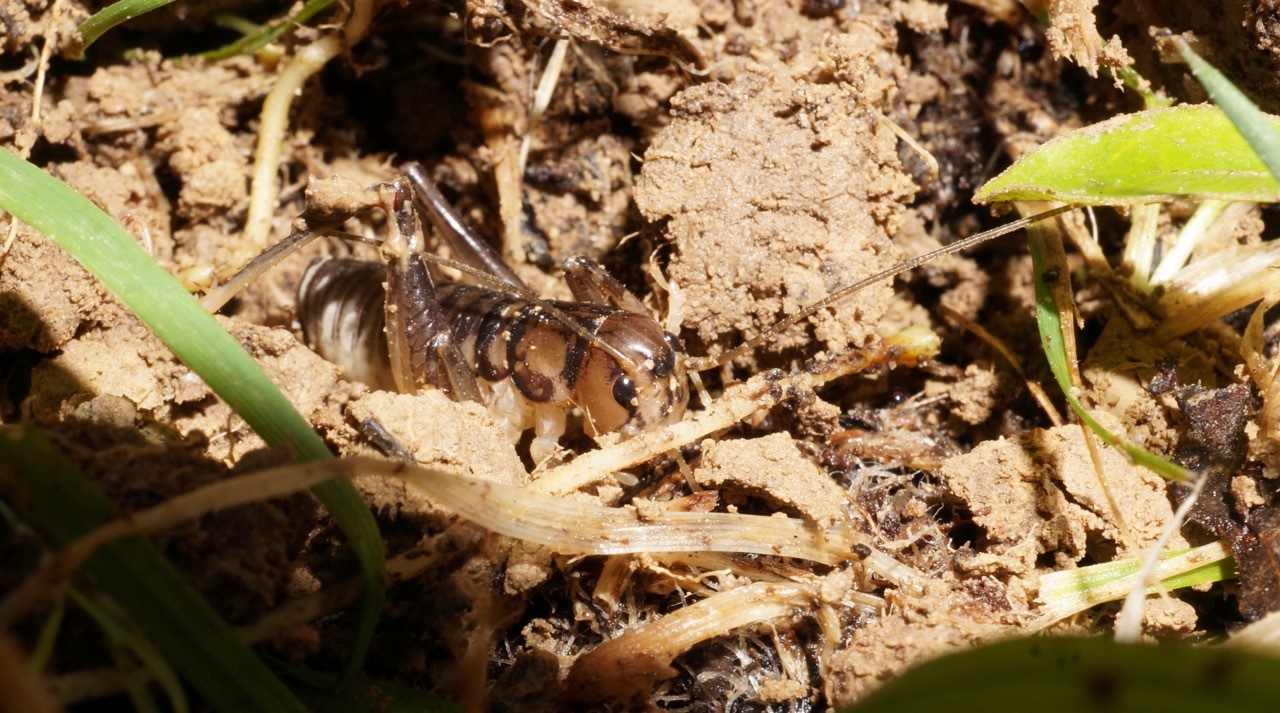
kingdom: Animalia
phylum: Arthropoda
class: Insecta
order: Orthoptera
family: Anostostomatidae
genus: Hemiandrus
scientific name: Hemiandrus pallitarsis
